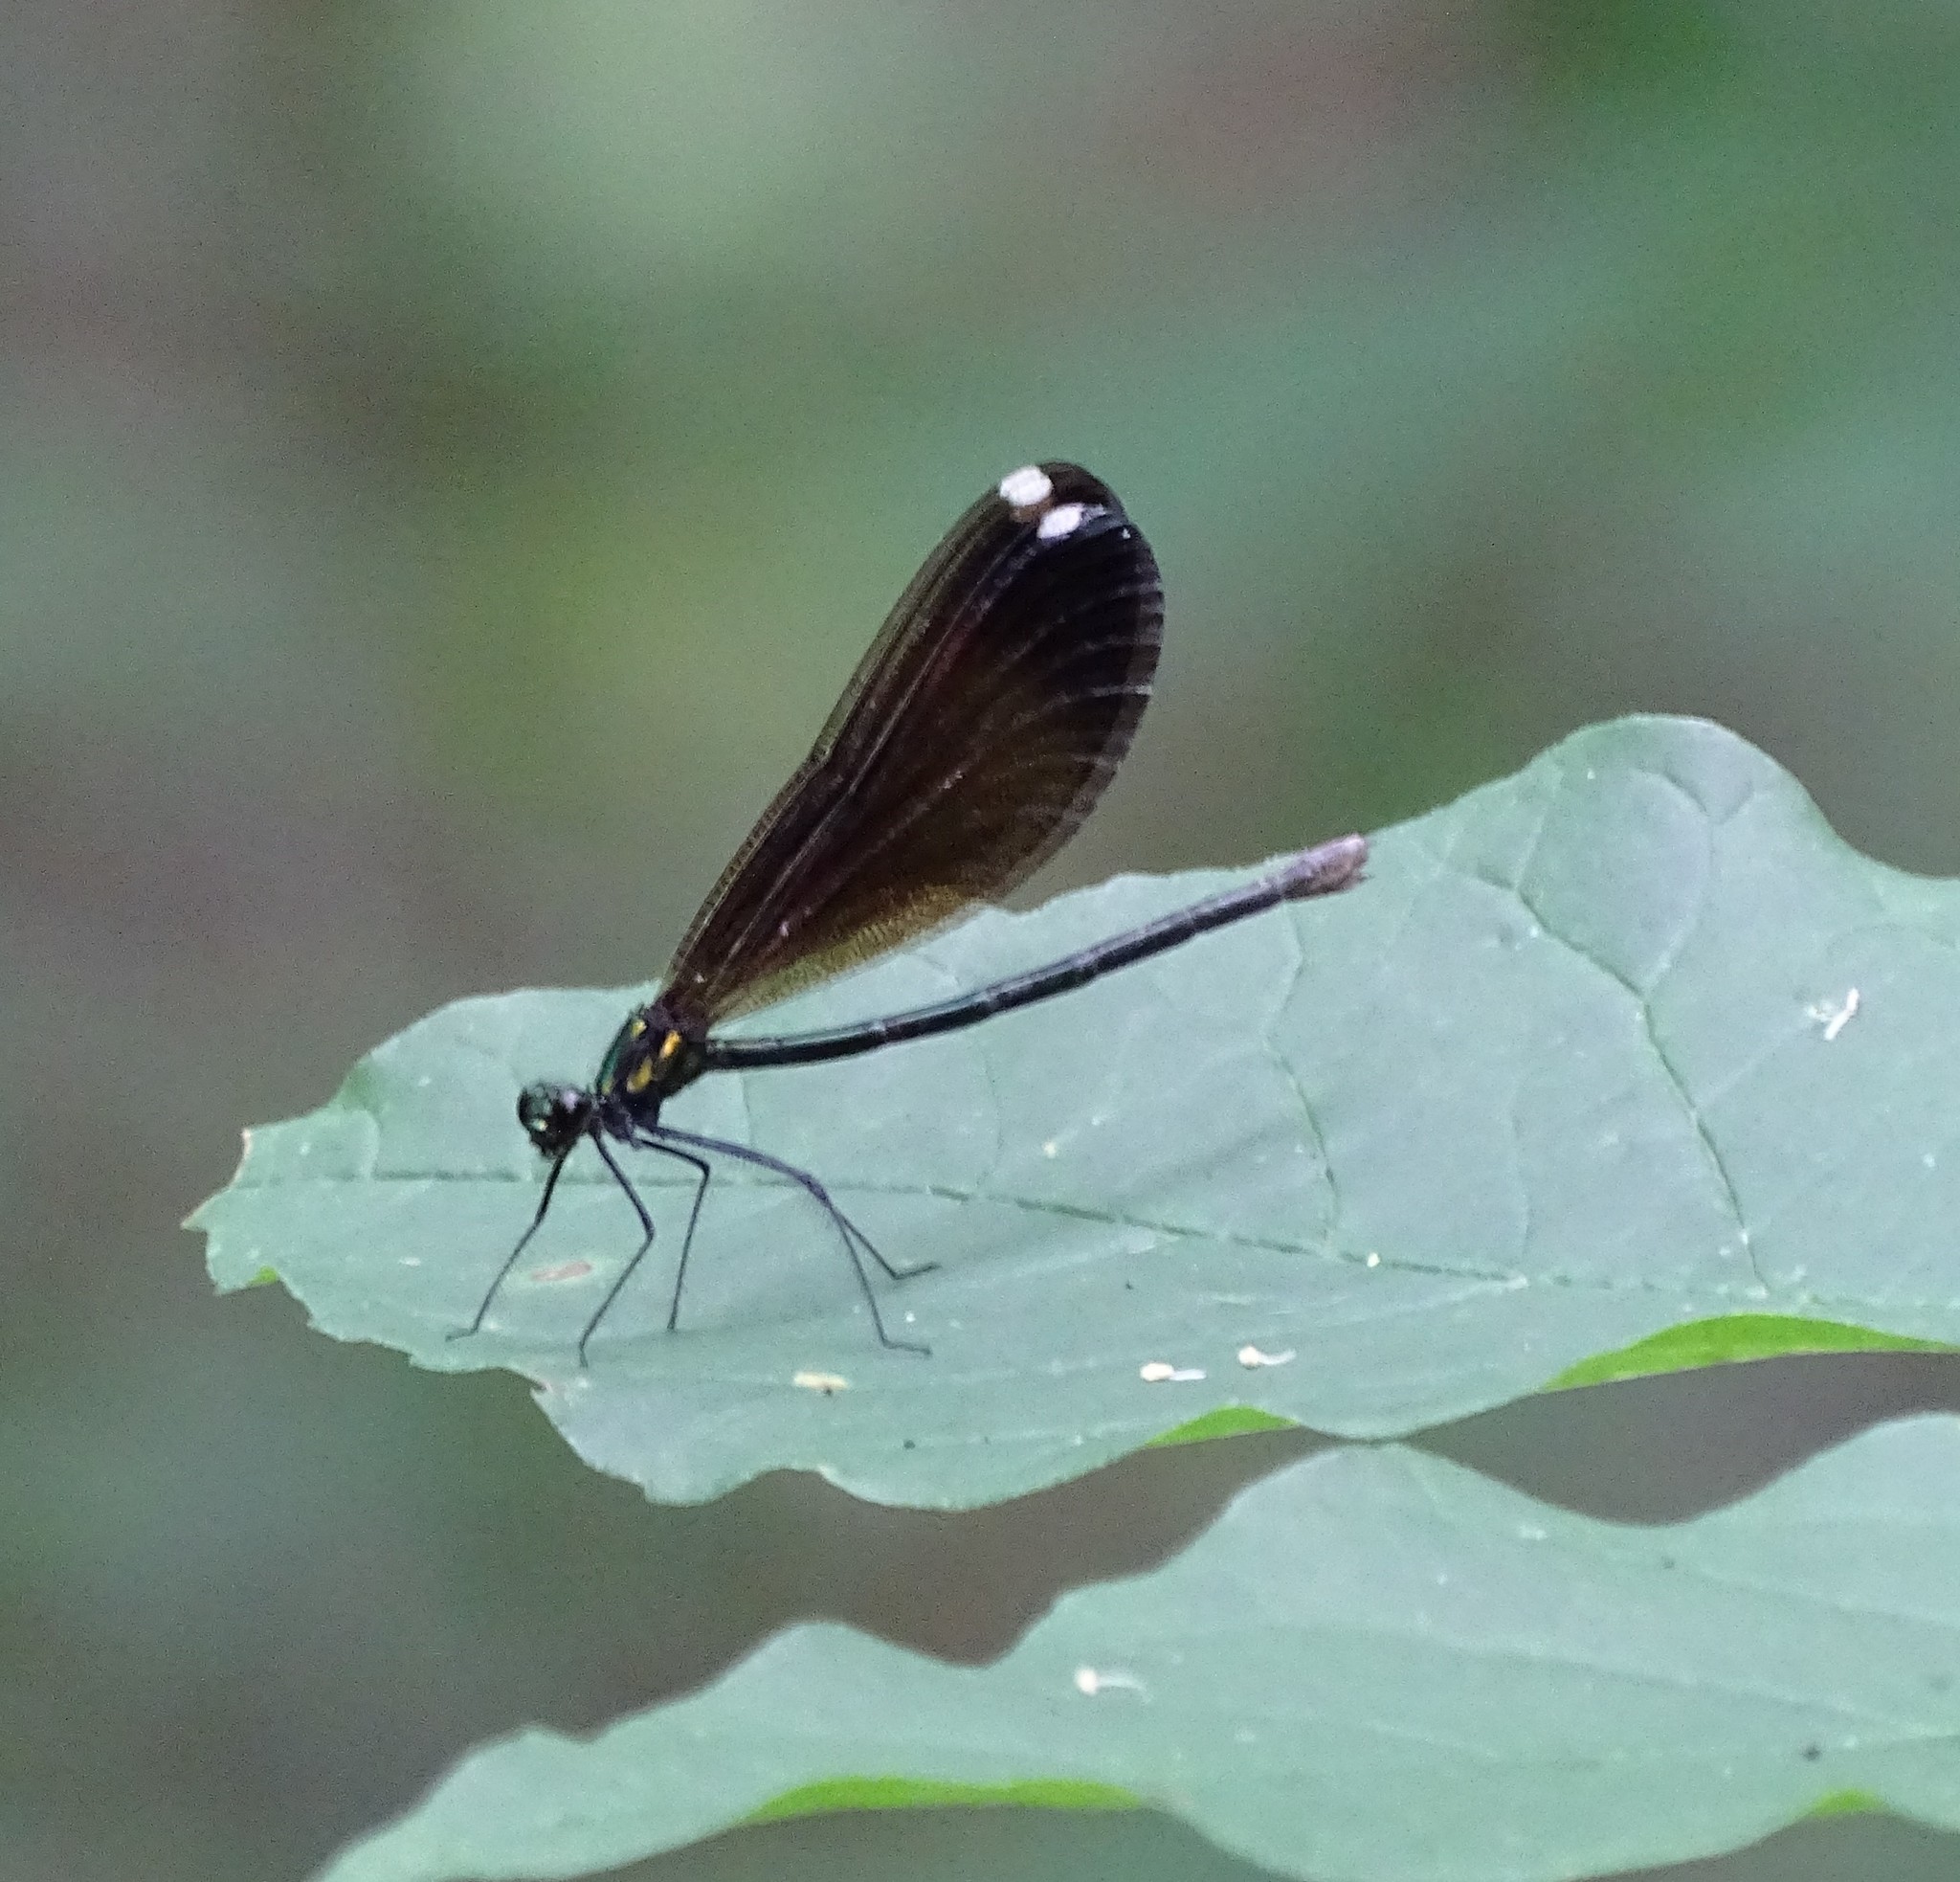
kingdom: Animalia
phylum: Arthropoda
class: Insecta
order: Odonata
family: Calopterygidae
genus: Calopteryx
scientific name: Calopteryx maculata
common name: Ebony jewelwing
